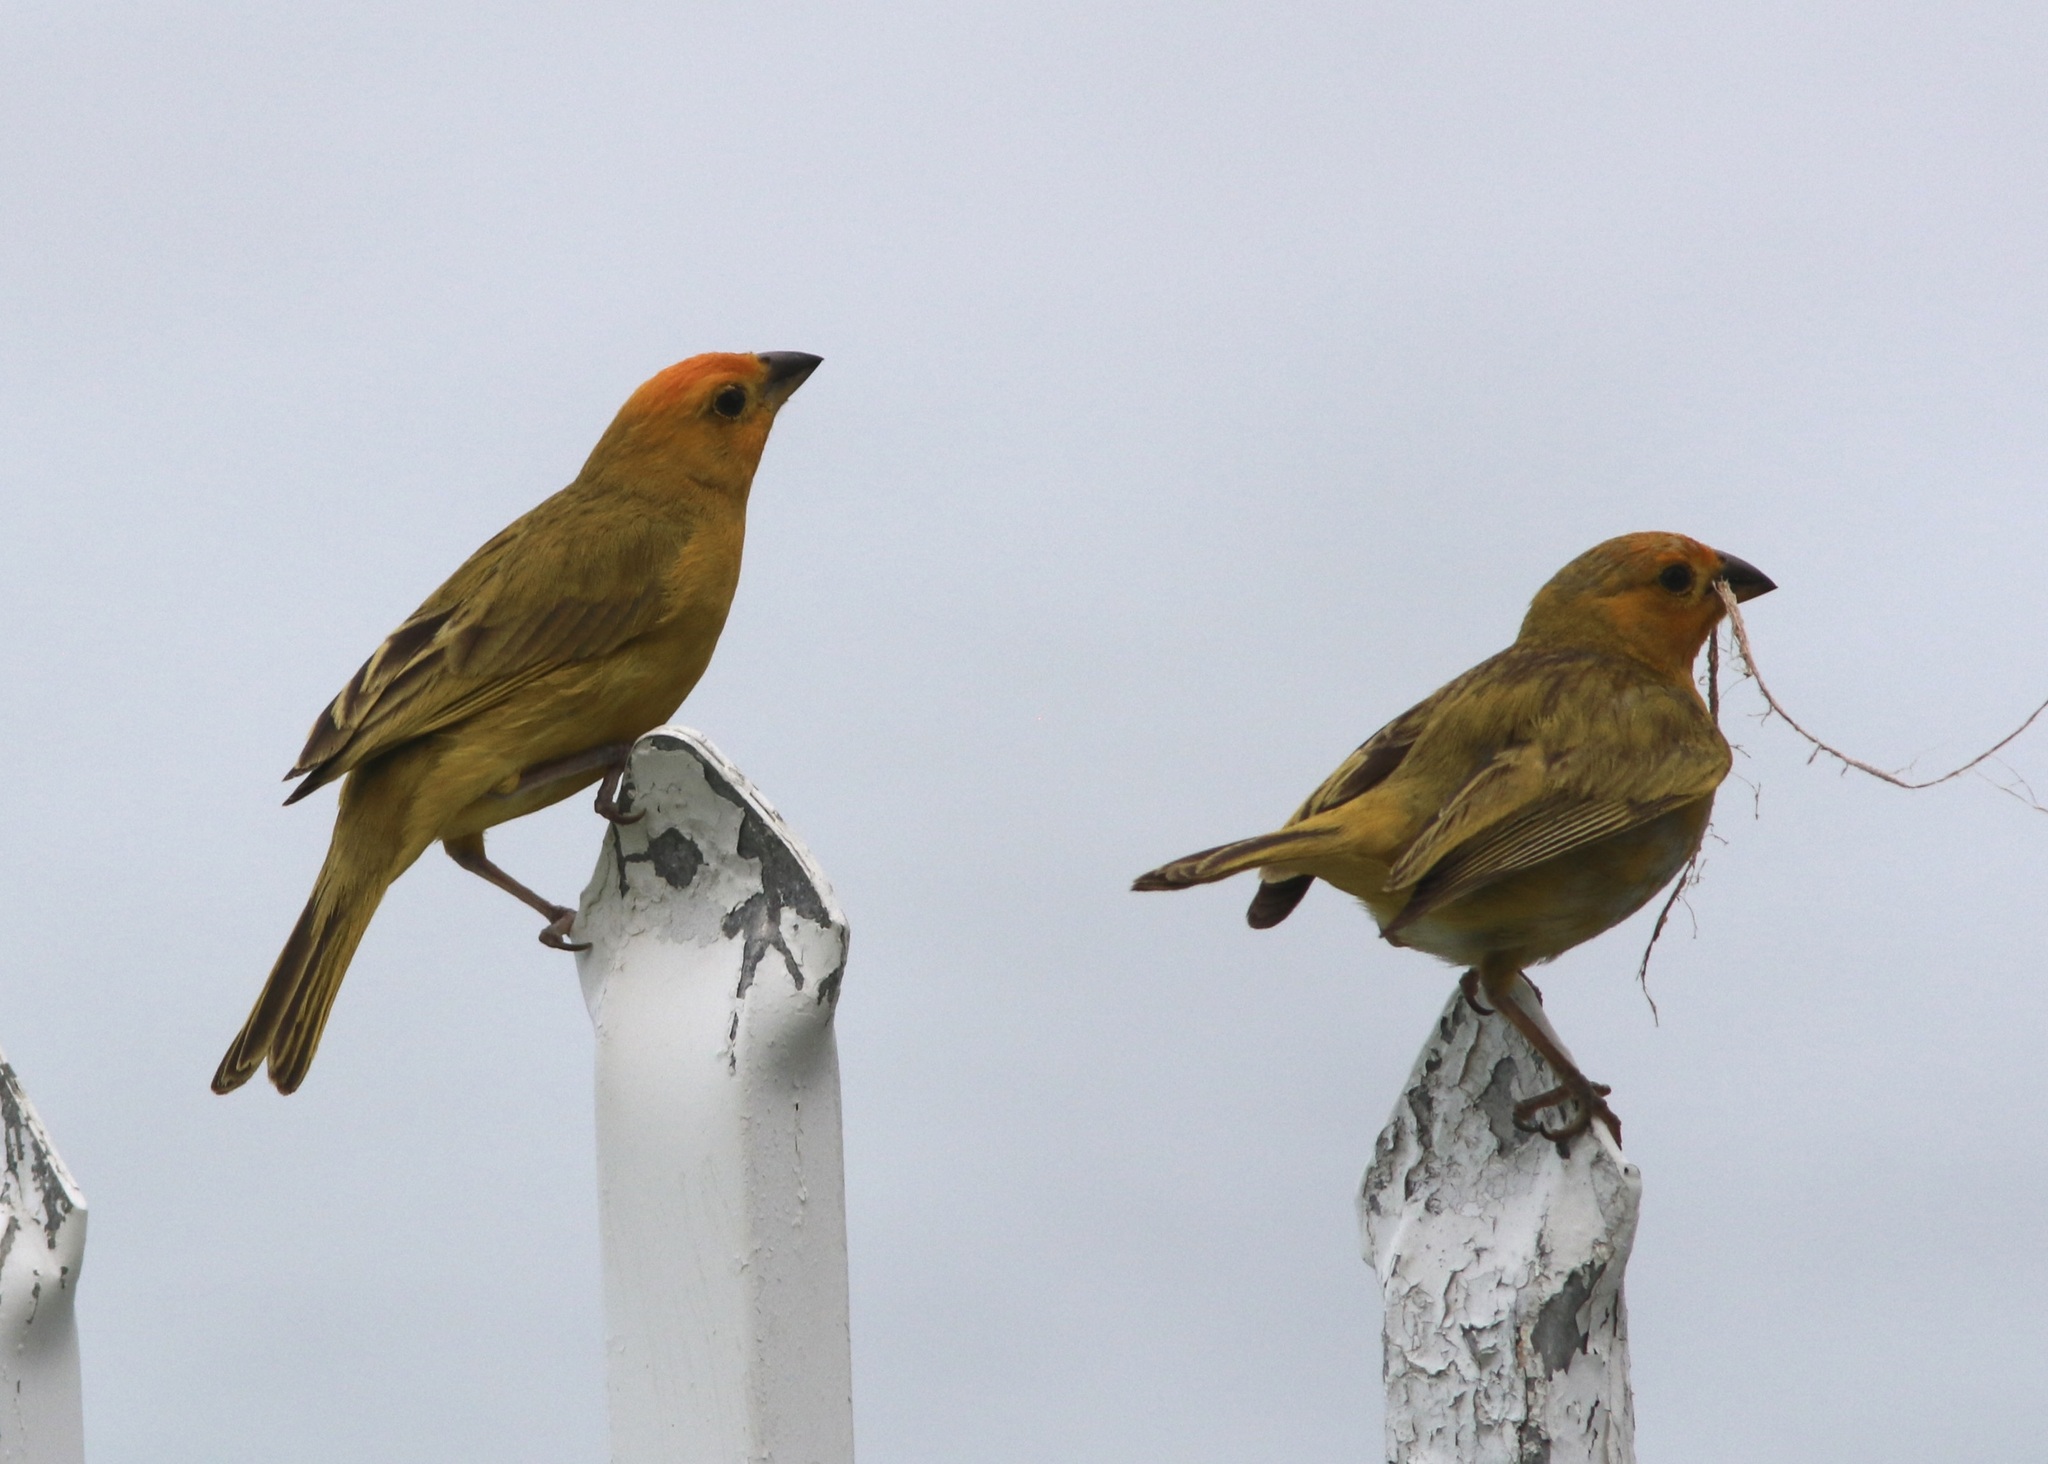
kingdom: Animalia
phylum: Chordata
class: Aves
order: Passeriformes
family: Thraupidae
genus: Sicalis
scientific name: Sicalis flaveola
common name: Saffron finch
